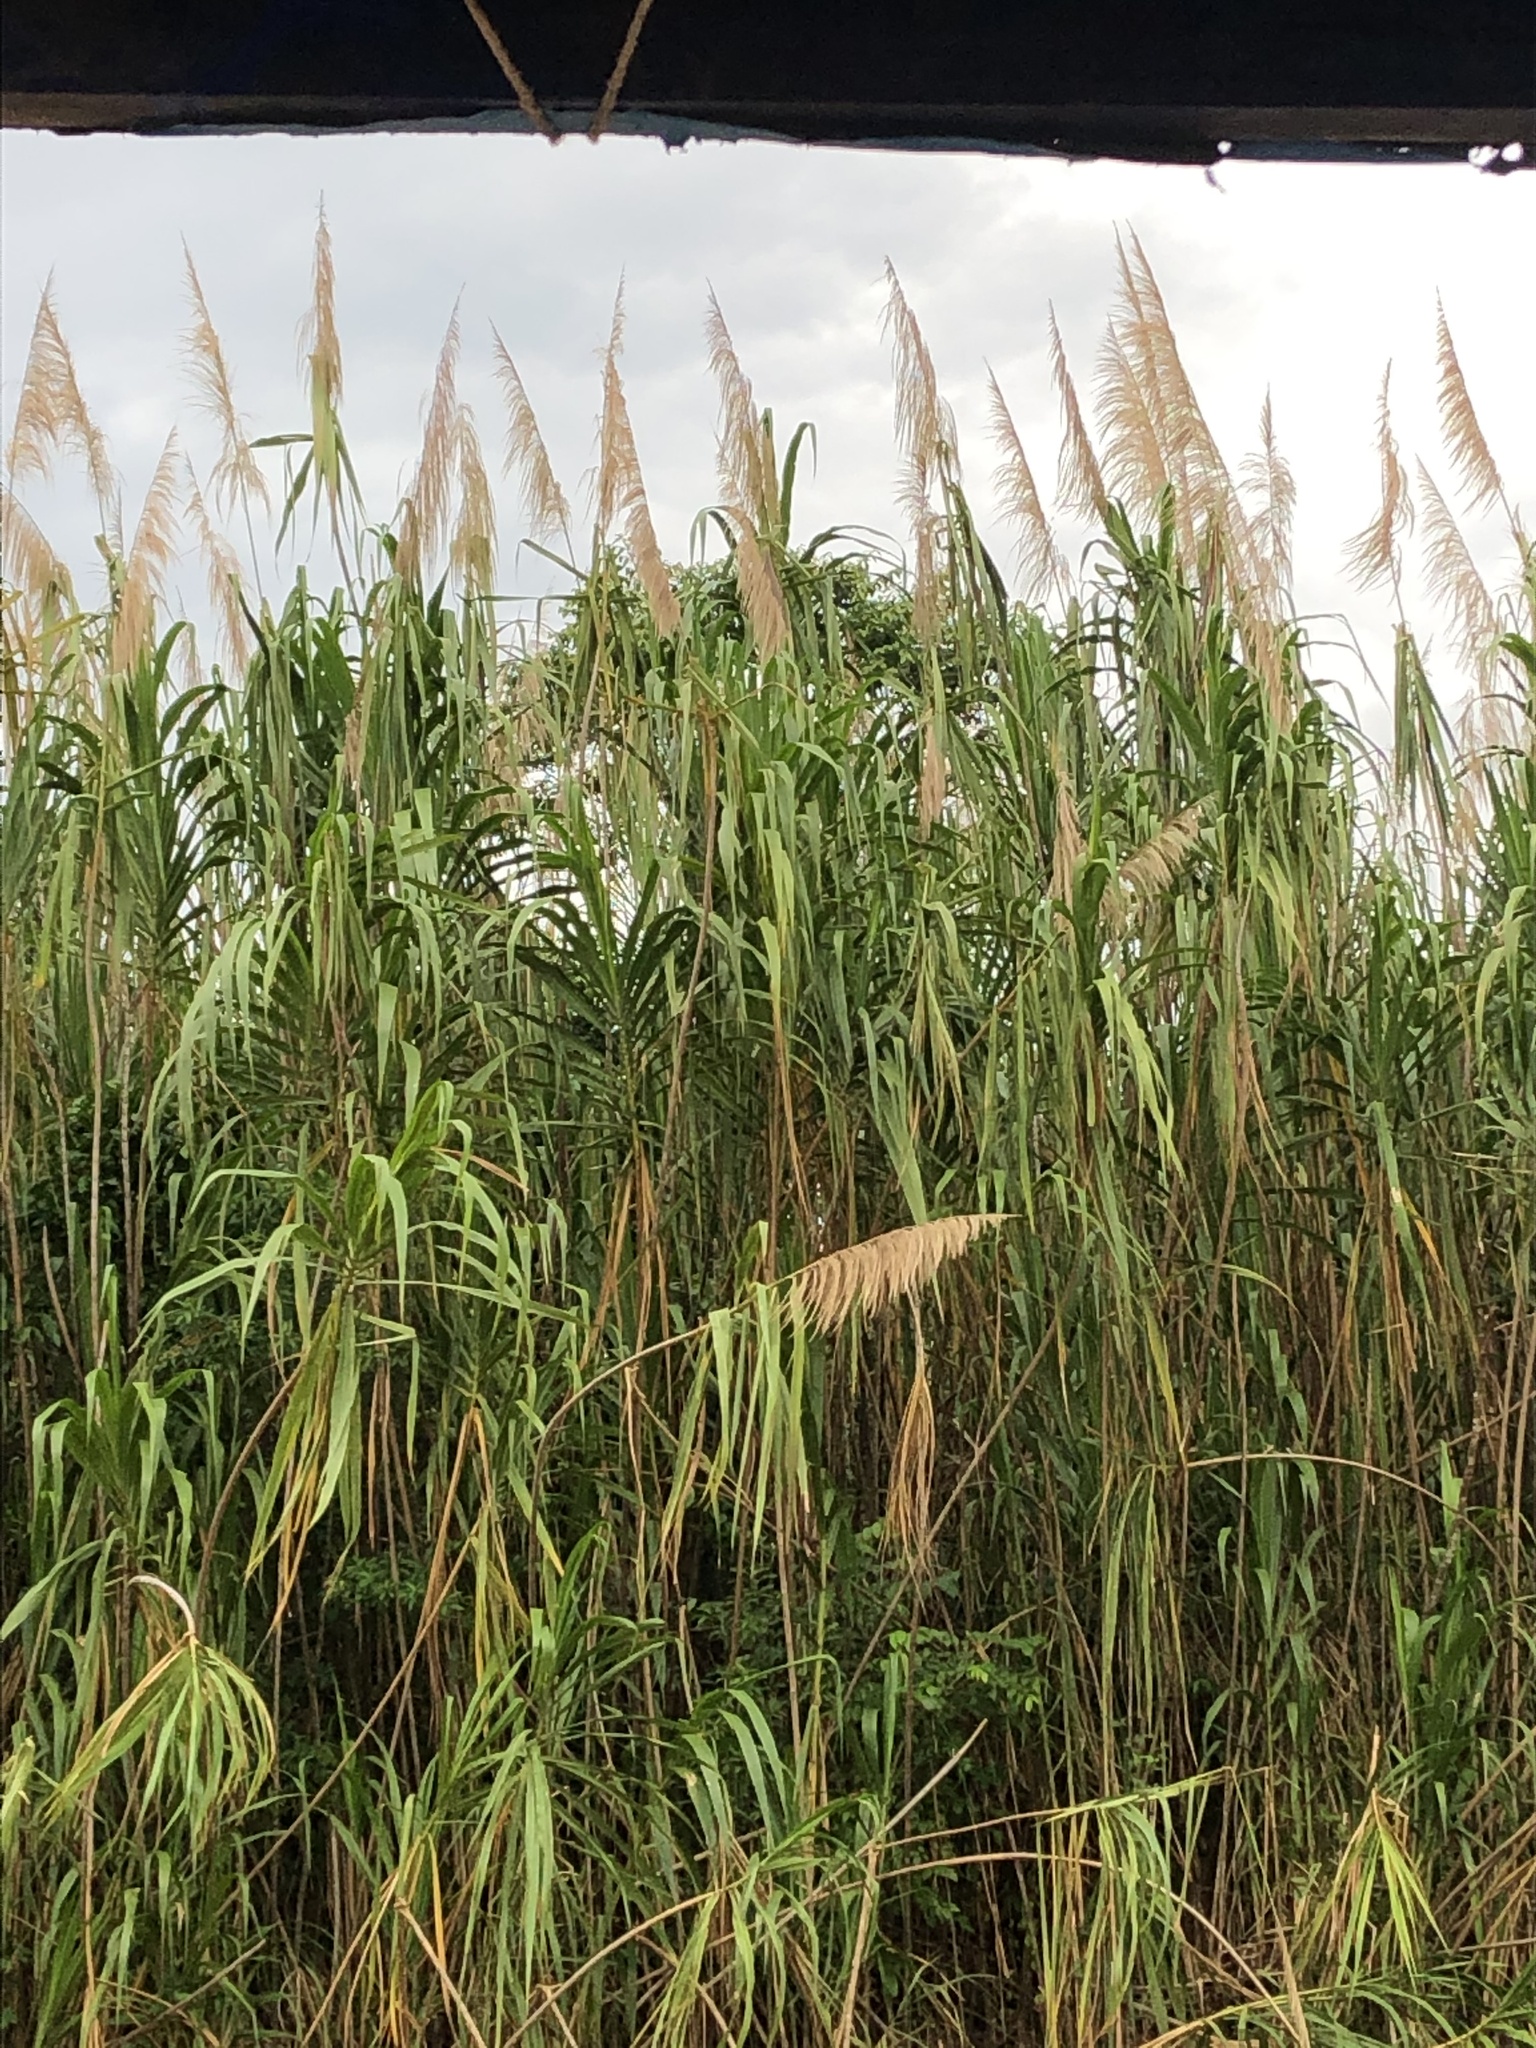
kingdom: Plantae
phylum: Tracheophyta
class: Liliopsida
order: Poales
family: Poaceae
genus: Gynerium
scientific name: Gynerium sagittatum
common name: Wild cane
